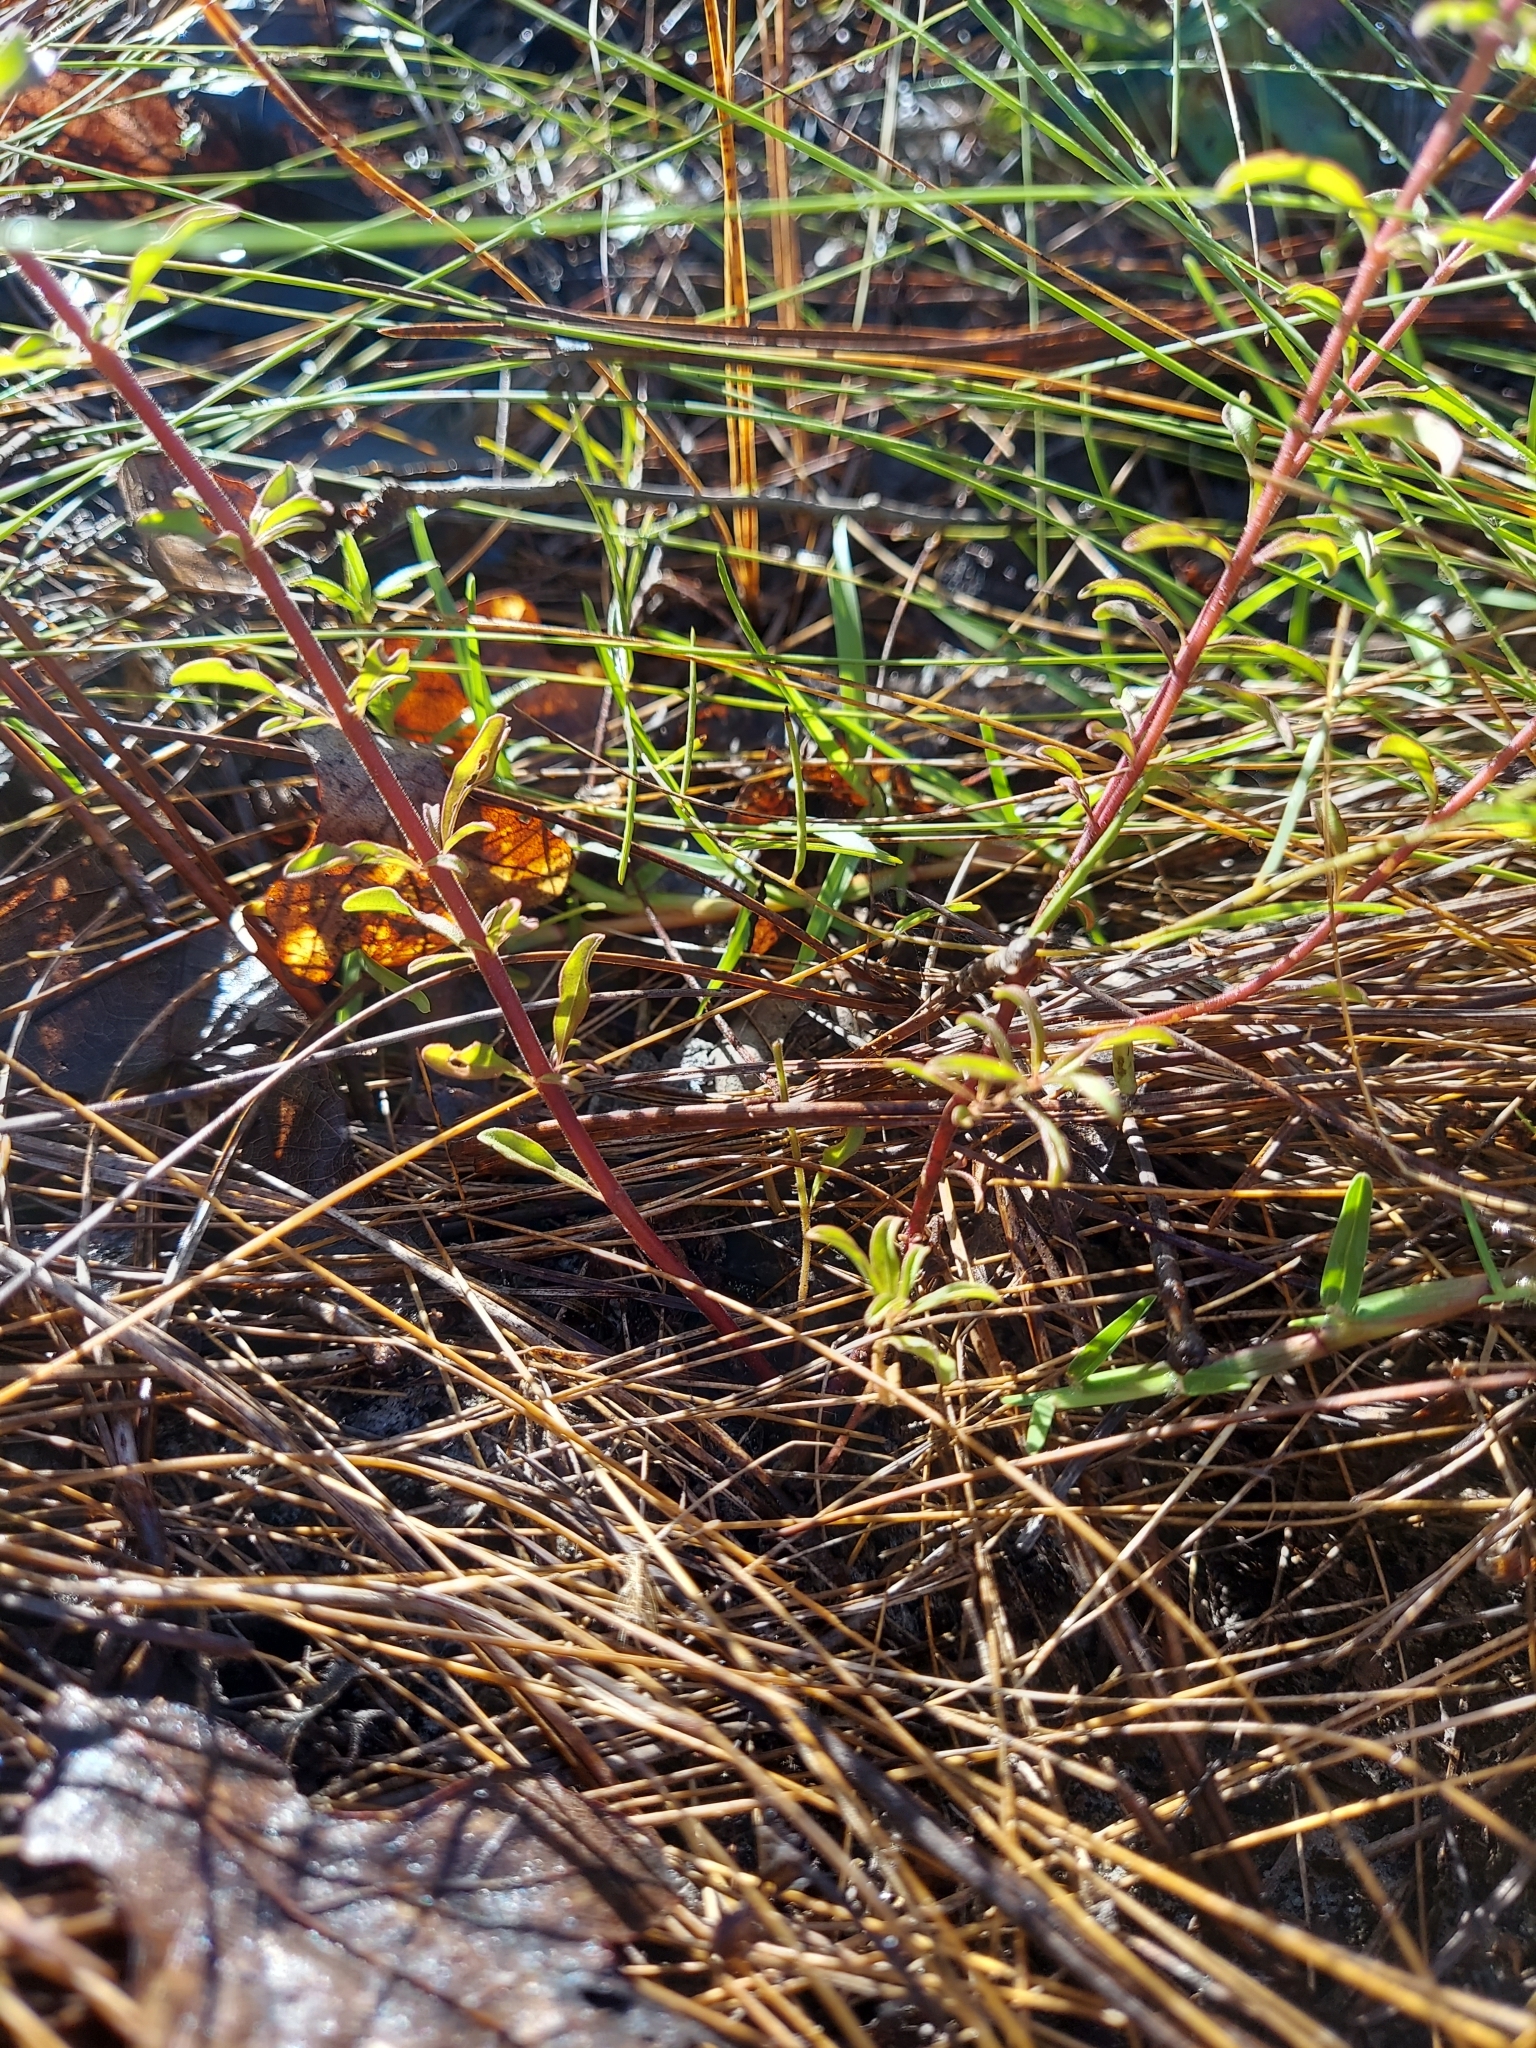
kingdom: Plantae
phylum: Tracheophyta
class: Magnoliopsida
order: Lamiales
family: Lamiaceae
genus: Trichostema
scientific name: Trichostema microphyllum
